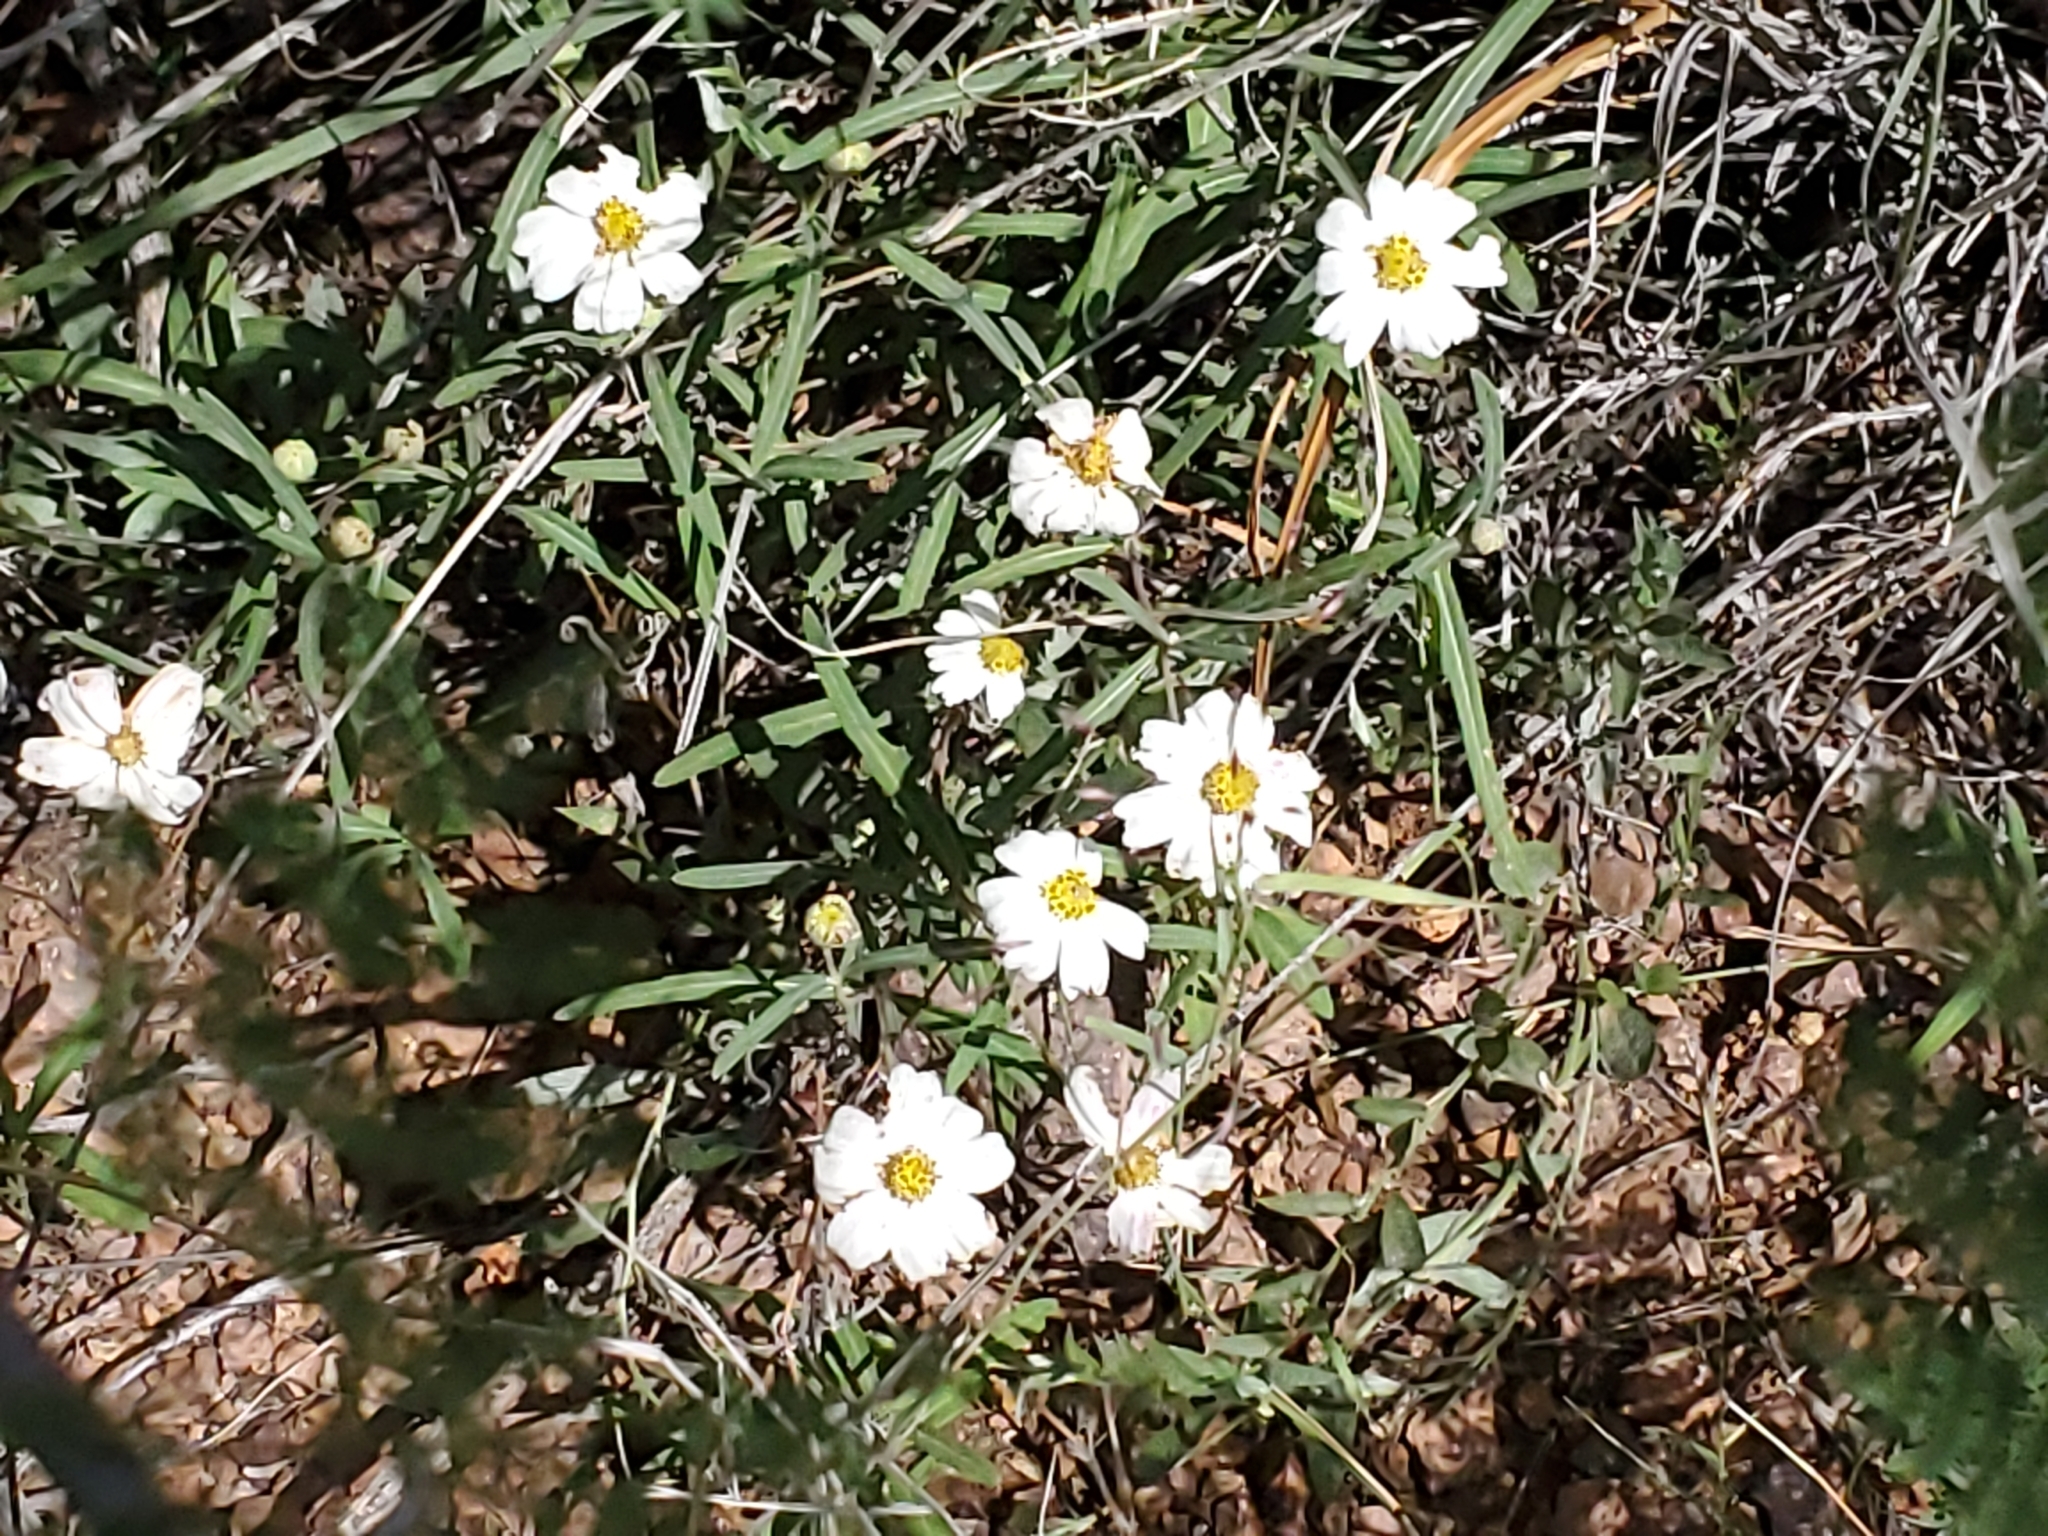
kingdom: Plantae
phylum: Tracheophyta
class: Magnoliopsida
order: Asterales
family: Asteraceae
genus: Melampodium
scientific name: Melampodium leucanthum
